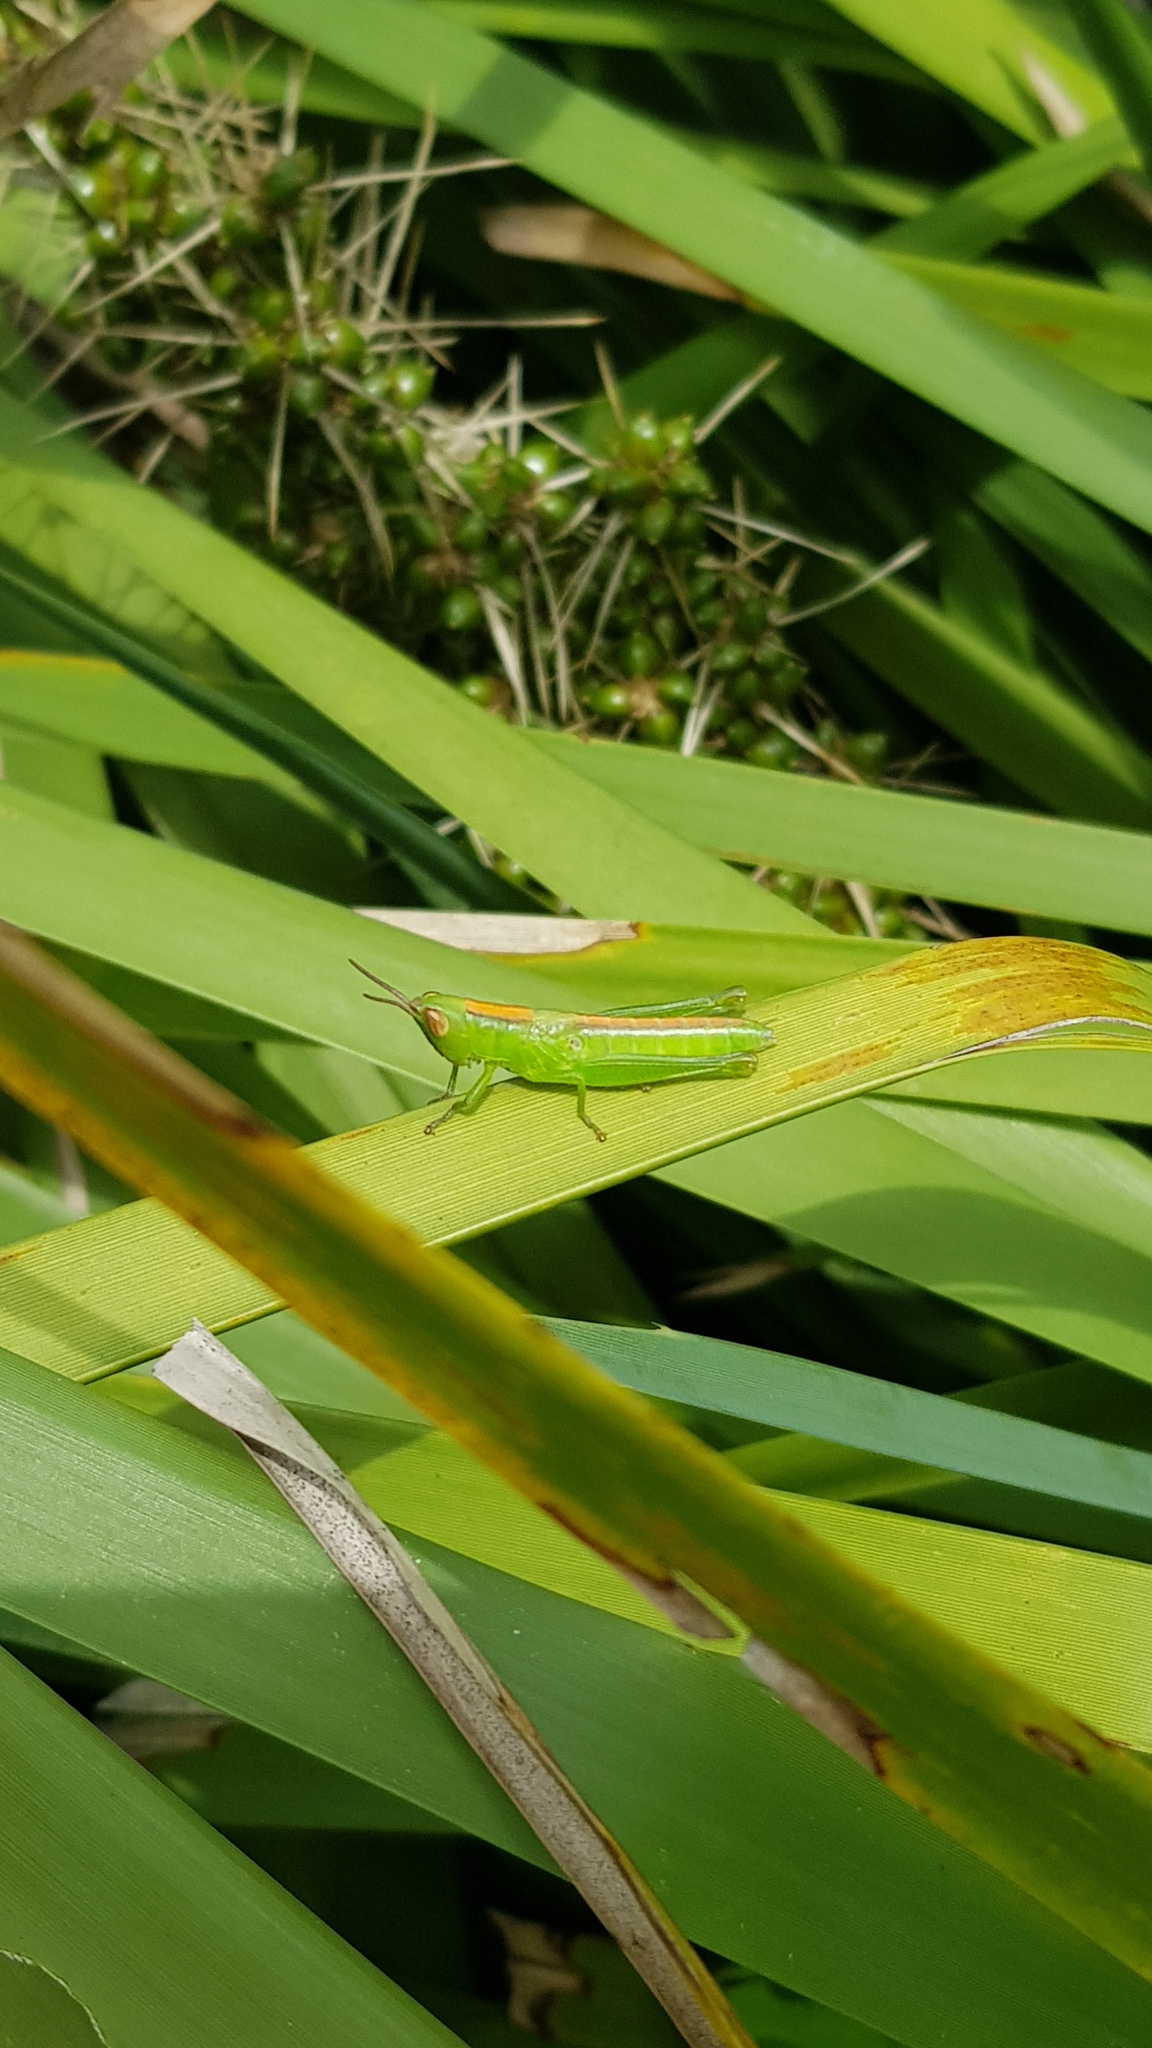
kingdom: Animalia
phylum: Arthropoda
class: Insecta
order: Orthoptera
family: Acrididae
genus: Bermius
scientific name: Bermius brachycerus
